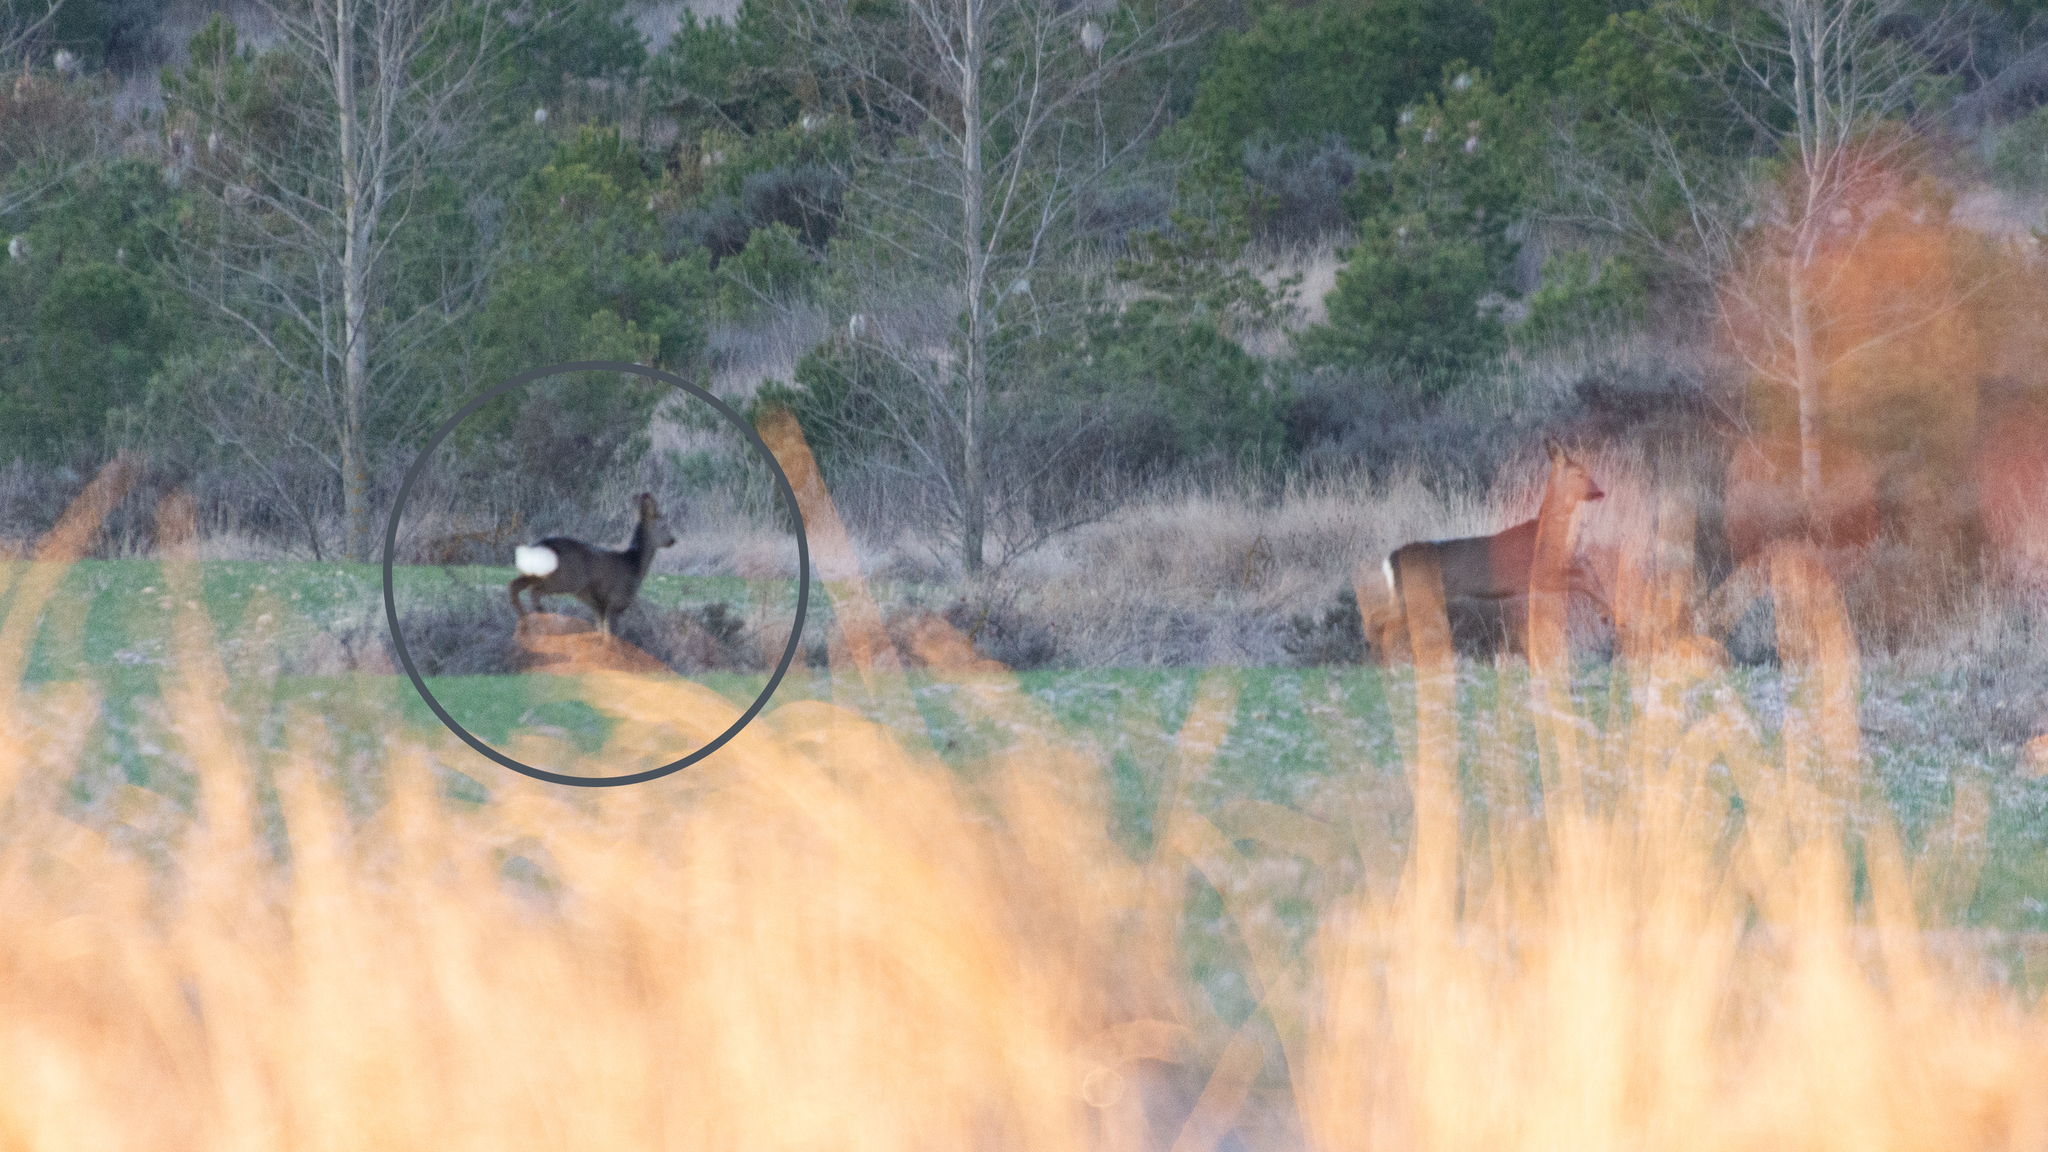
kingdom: Animalia
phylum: Chordata
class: Mammalia
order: Artiodactyla
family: Cervidae
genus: Capreolus
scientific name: Capreolus capreolus
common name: Western roe deer
